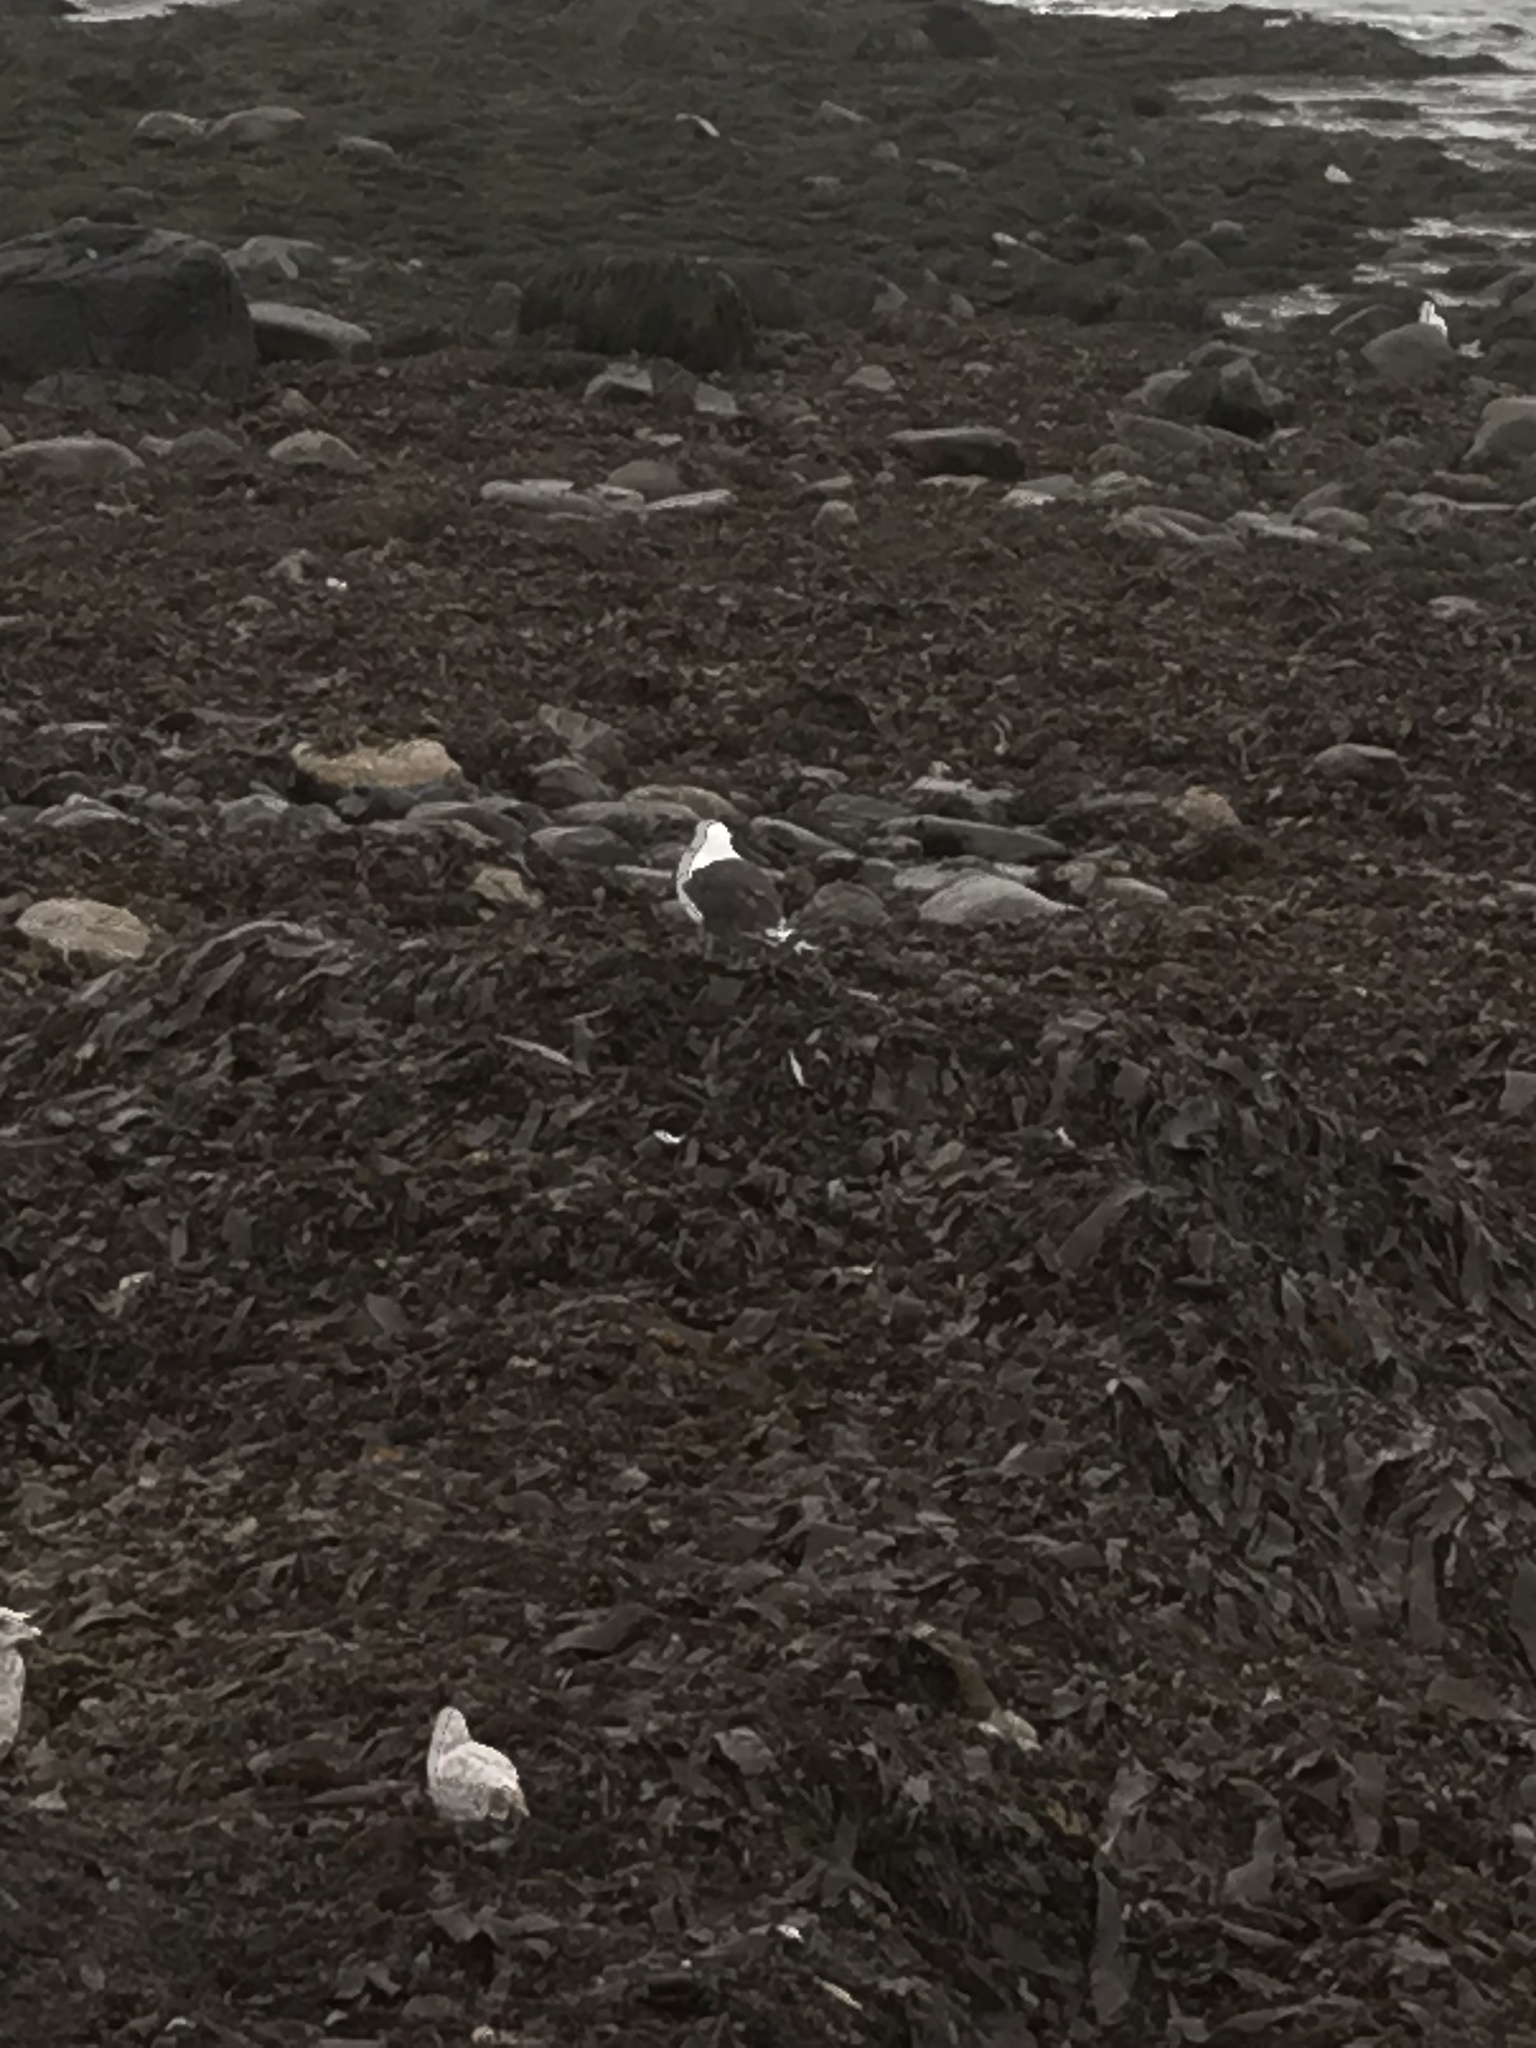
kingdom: Animalia
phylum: Chordata
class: Aves
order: Charadriiformes
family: Laridae
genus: Larus
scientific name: Larus marinus
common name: Great black-backed gull
